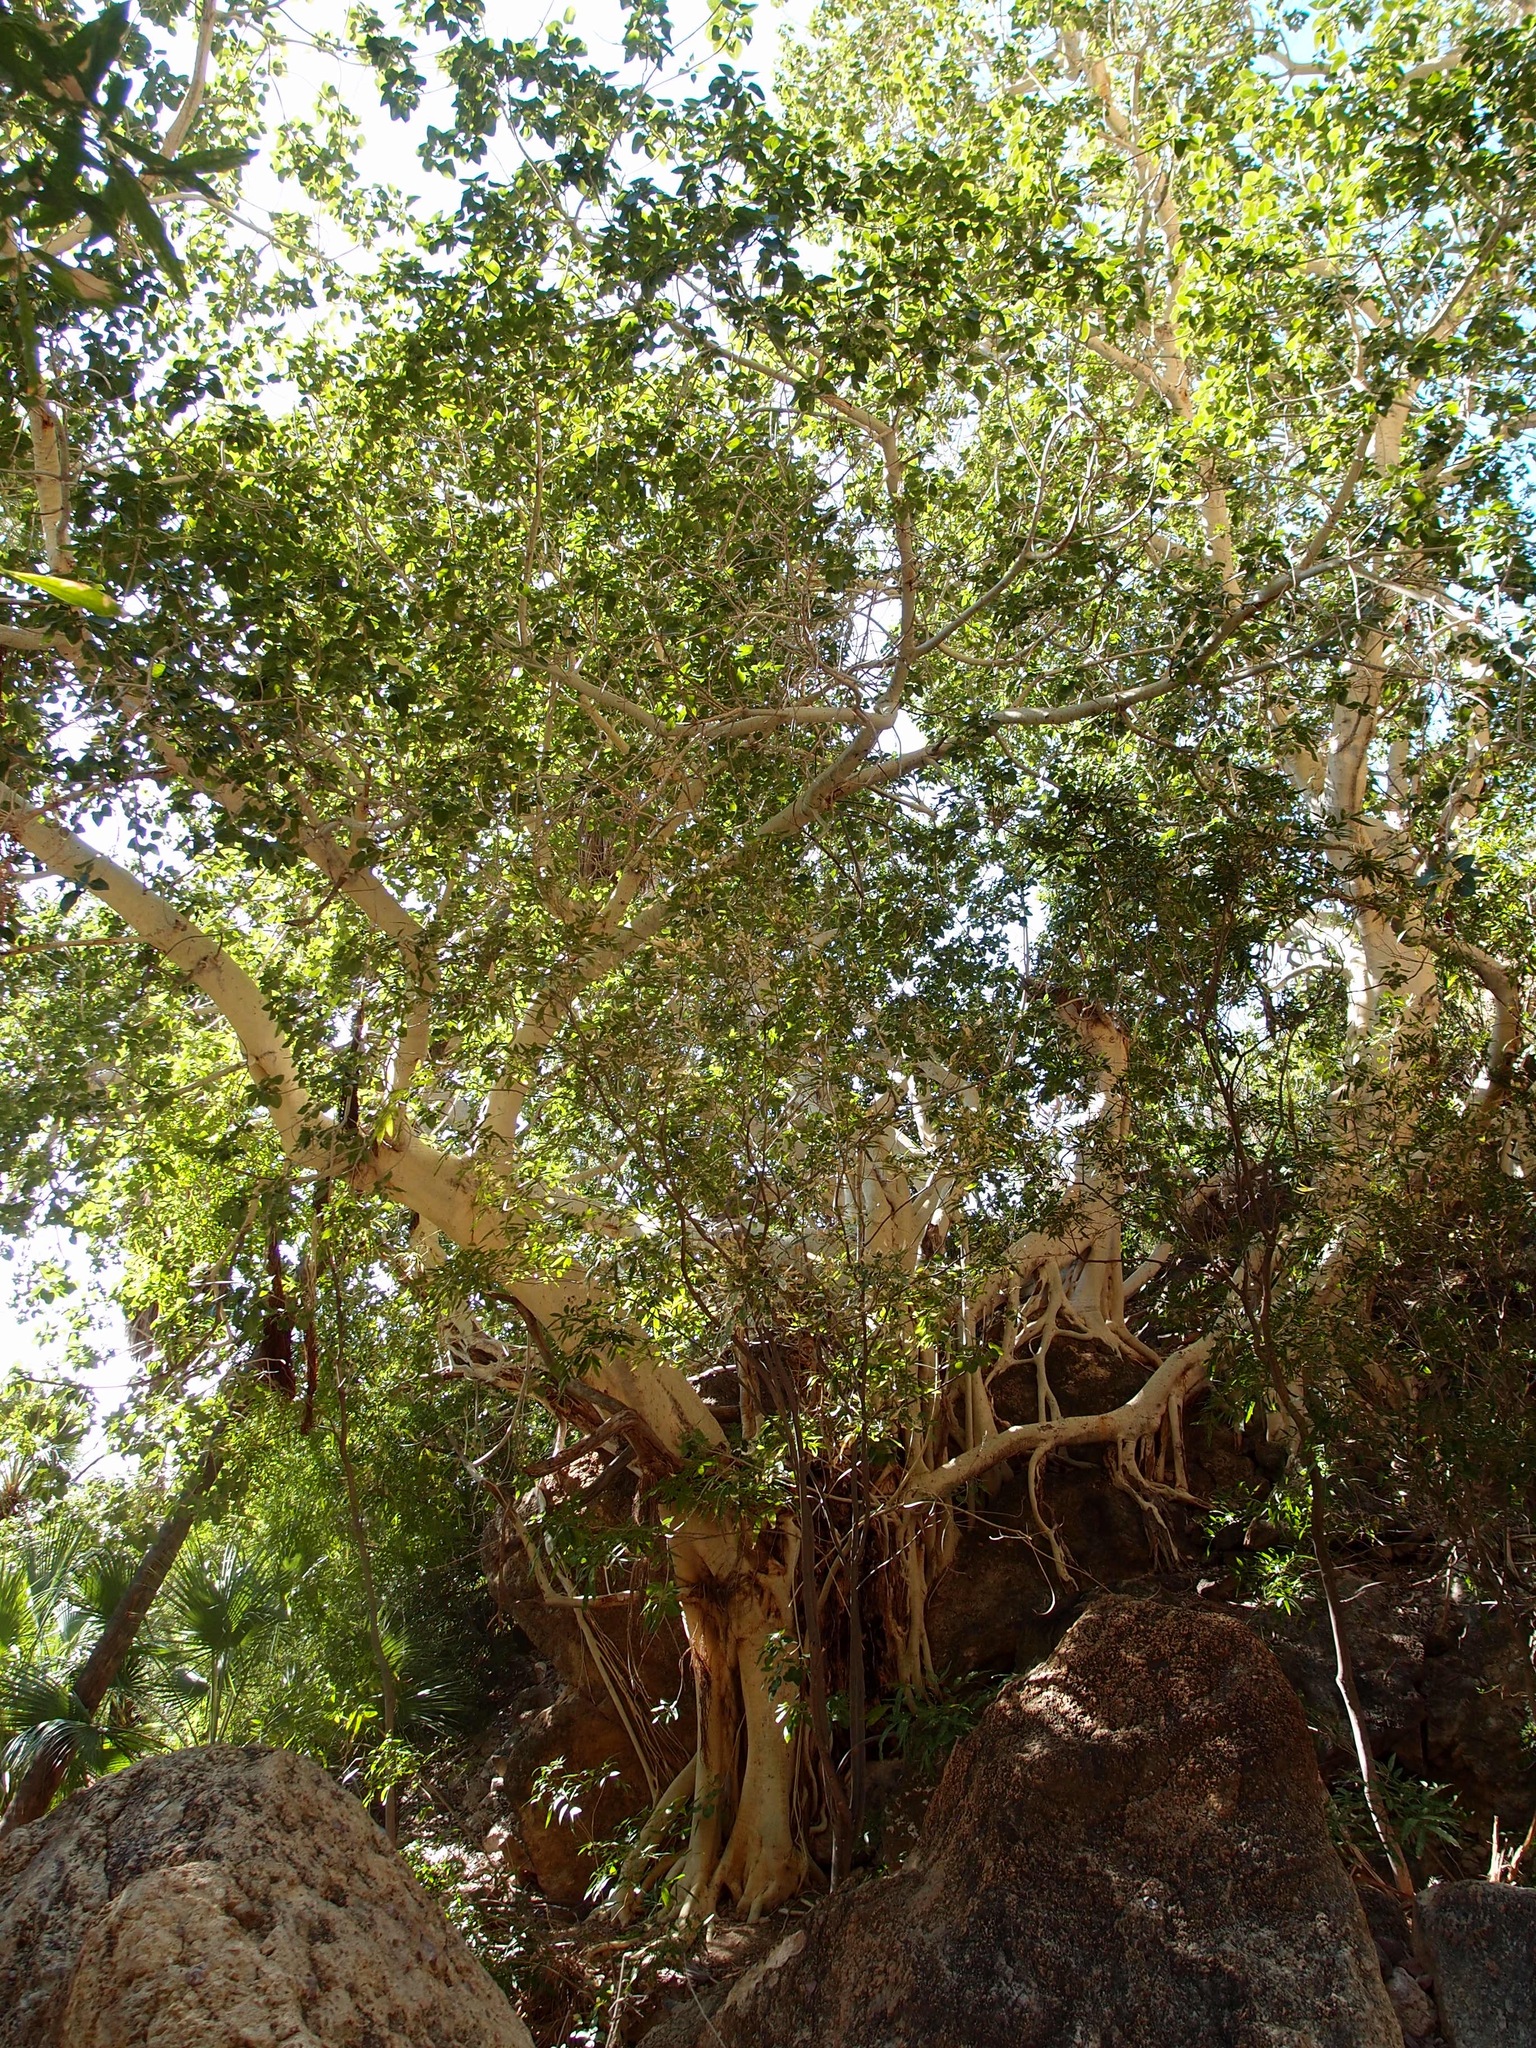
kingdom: Plantae
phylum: Tracheophyta
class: Magnoliopsida
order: Rosales
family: Moraceae
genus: Ficus
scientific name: Ficus petiolaris
